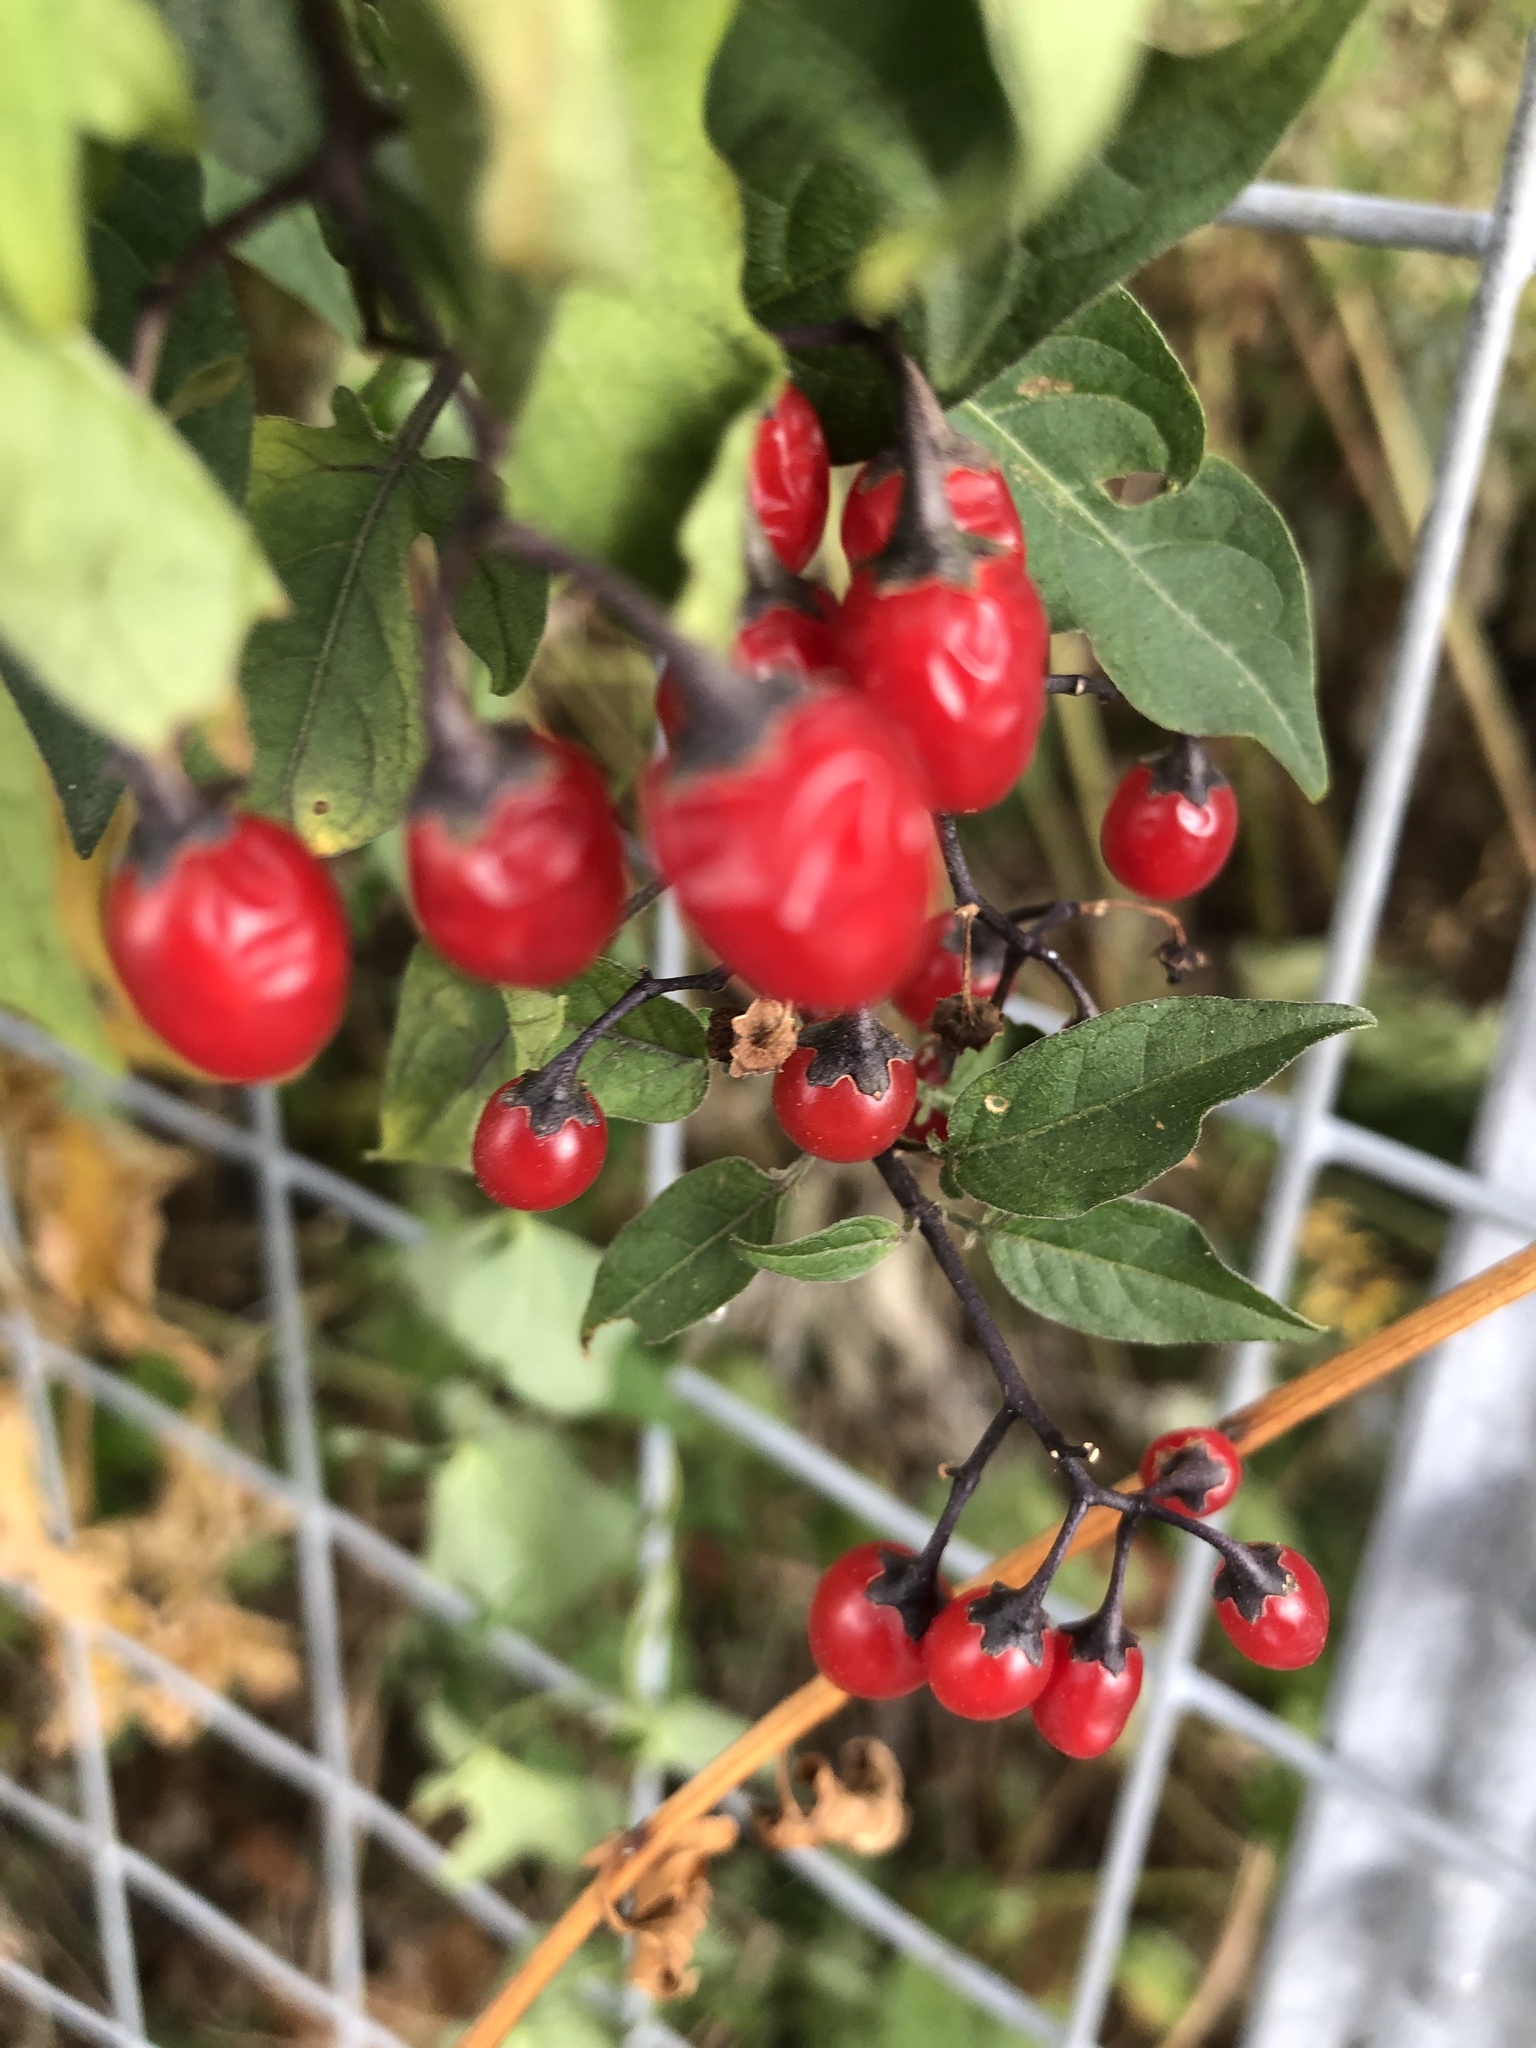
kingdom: Plantae
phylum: Tracheophyta
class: Magnoliopsida
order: Solanales
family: Solanaceae
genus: Solanum
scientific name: Solanum dulcamara
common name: Climbing nightshade
